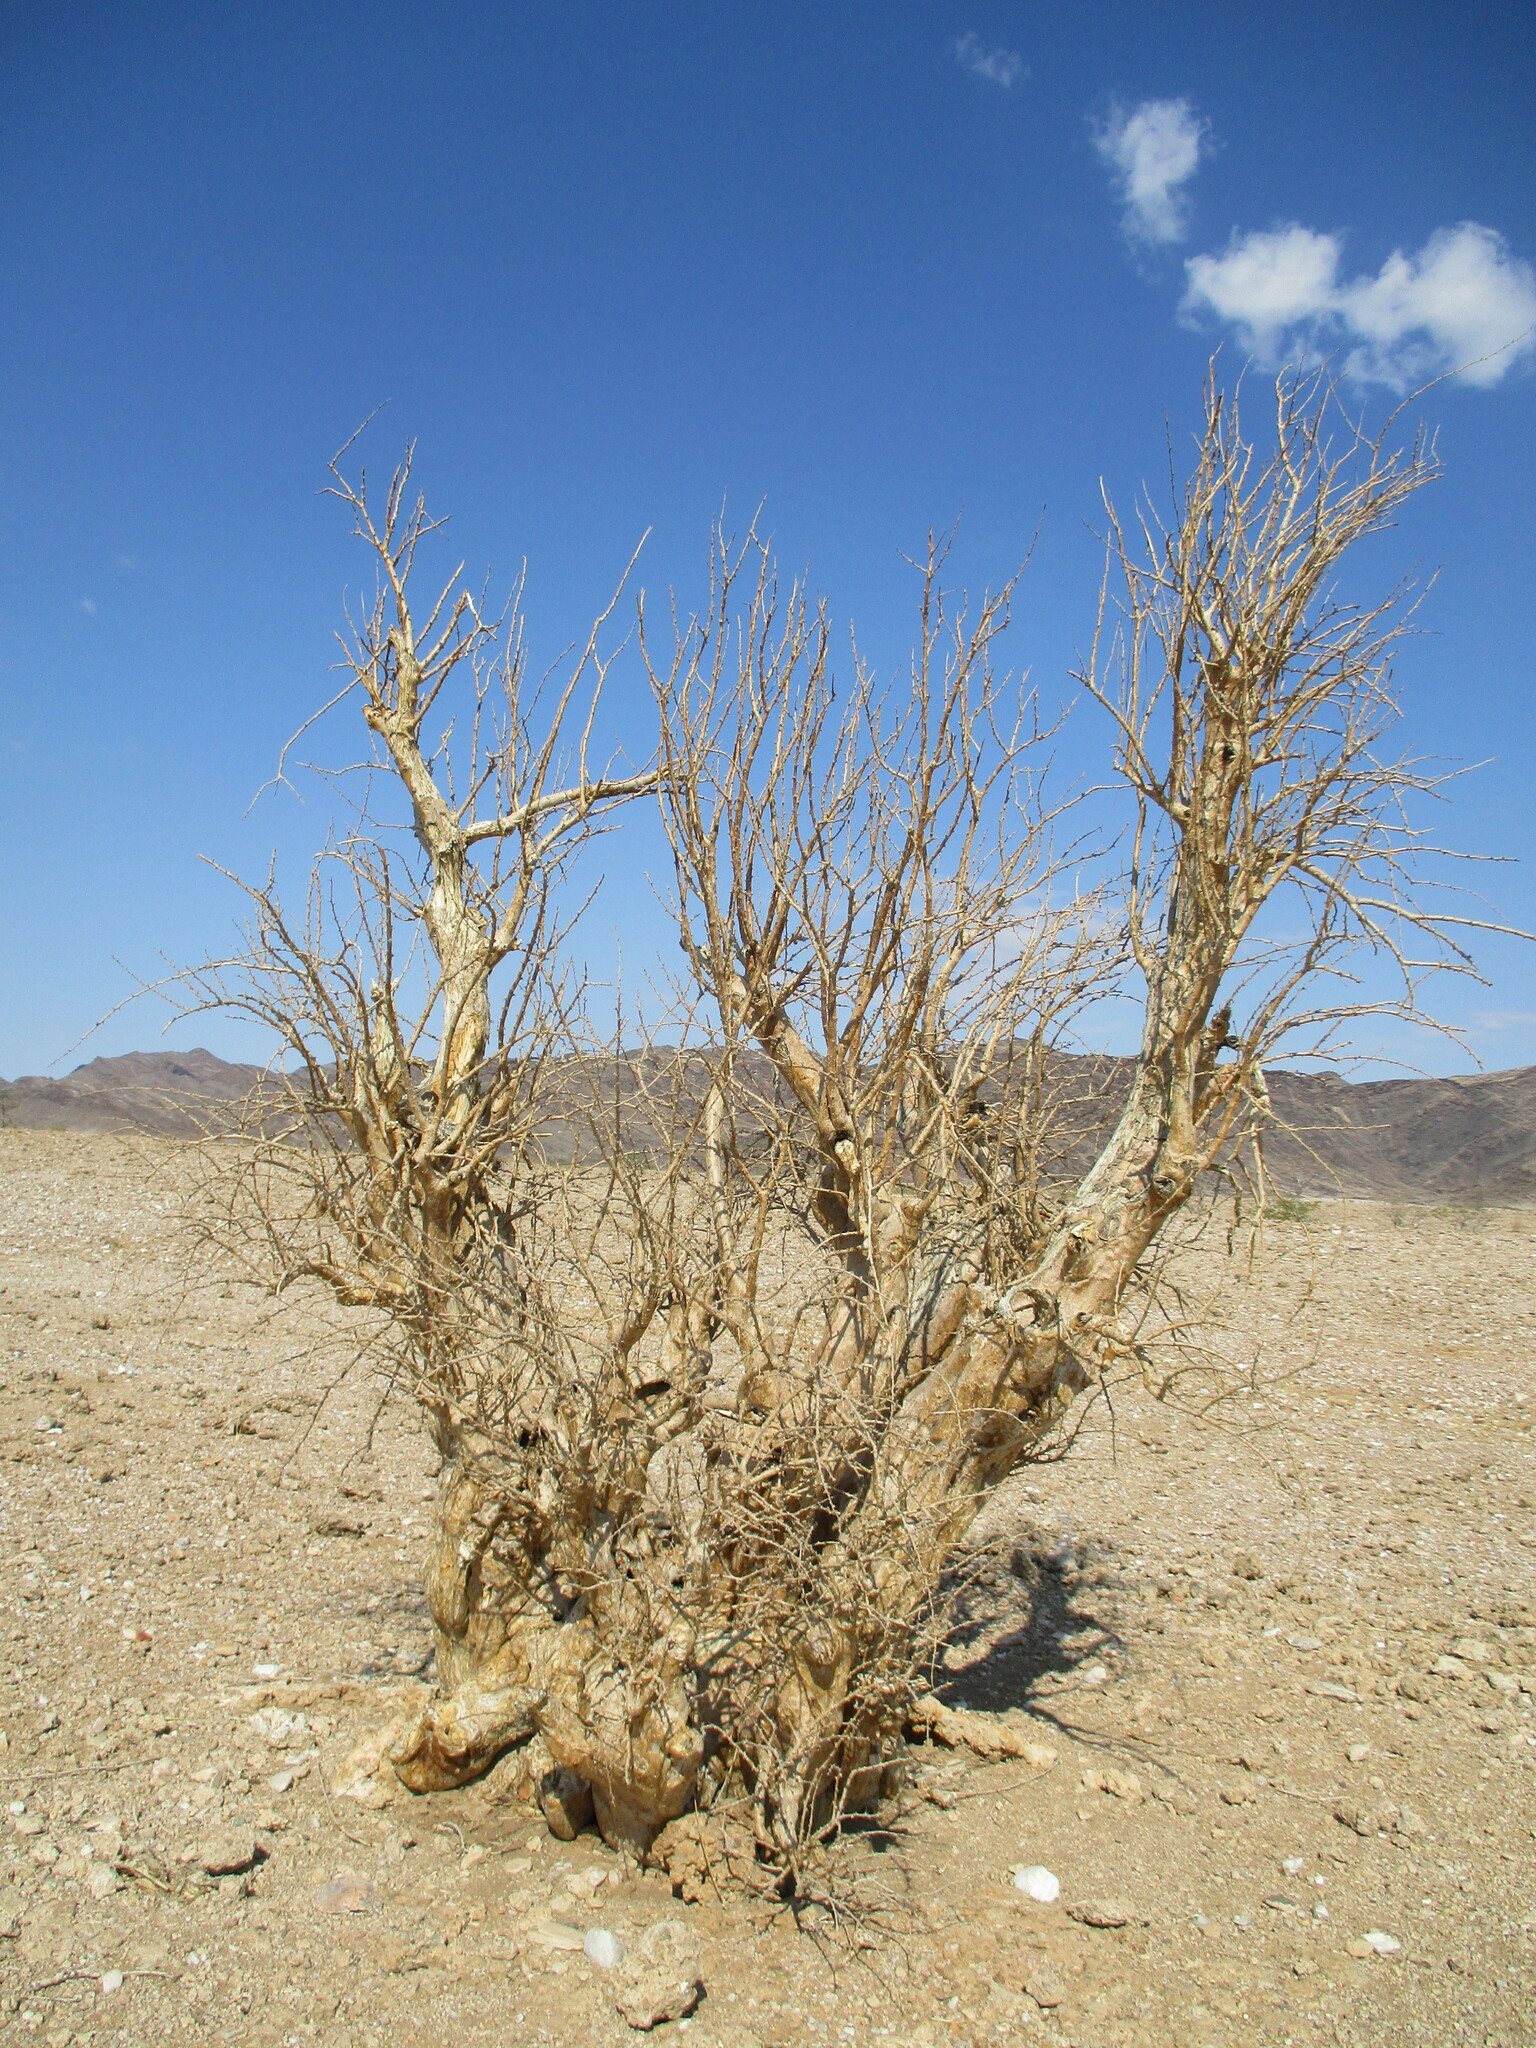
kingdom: Plantae
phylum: Tracheophyta
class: Magnoliopsida
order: Lamiales
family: Pedaliaceae
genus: Sesamothamnus
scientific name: Sesamothamnus guerichii
